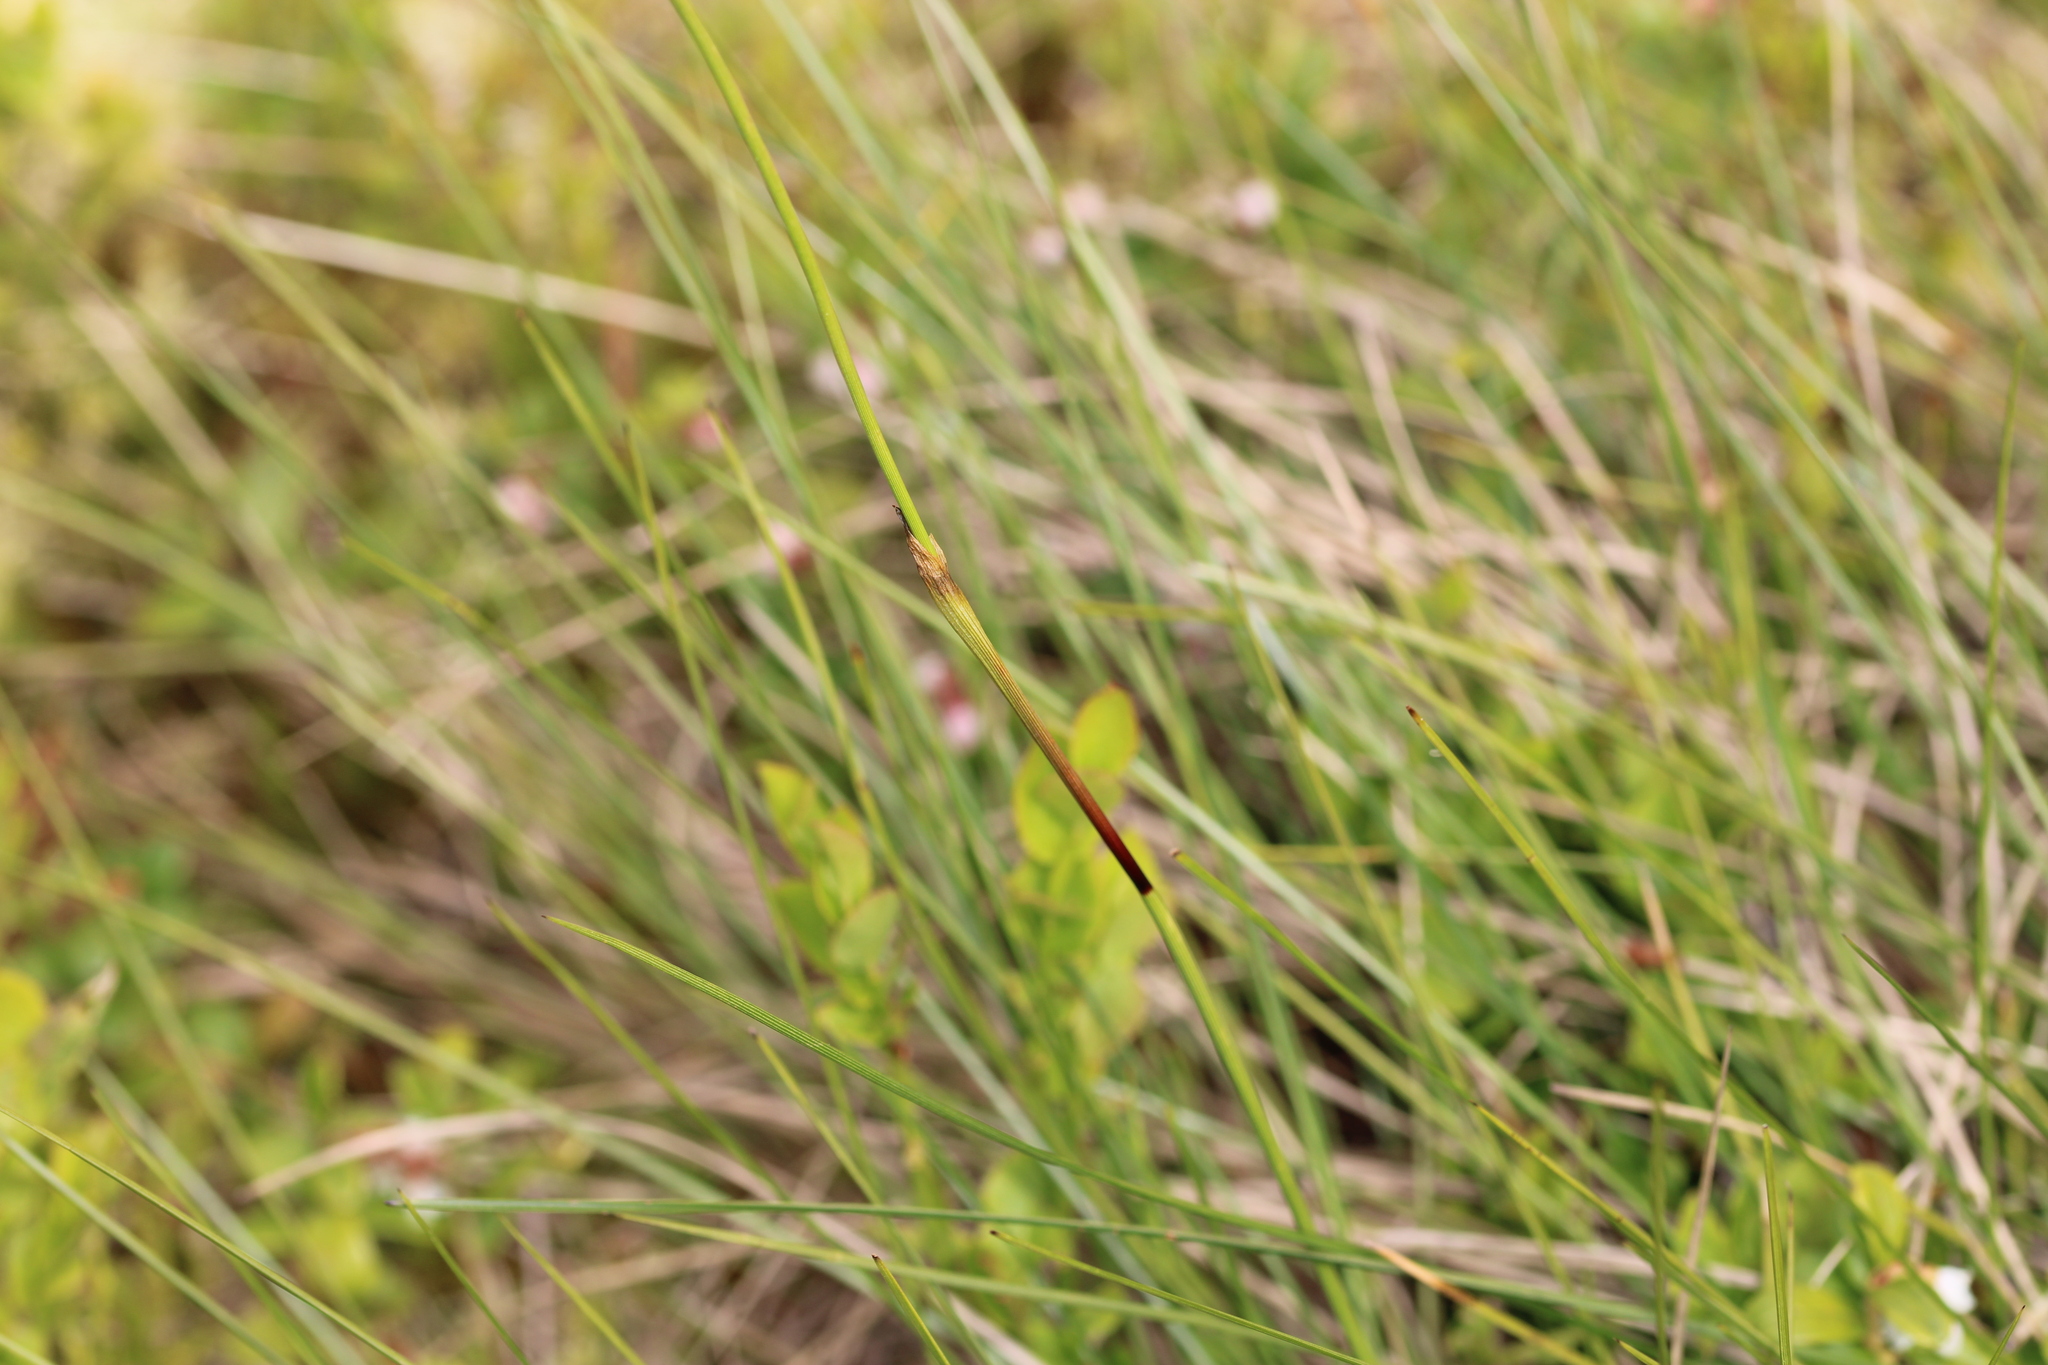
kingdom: Plantae
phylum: Tracheophyta
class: Liliopsida
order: Poales
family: Cyperaceae
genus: Eriophorum
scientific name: Eriophorum vaginatum
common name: Hare's-tail cottongrass
